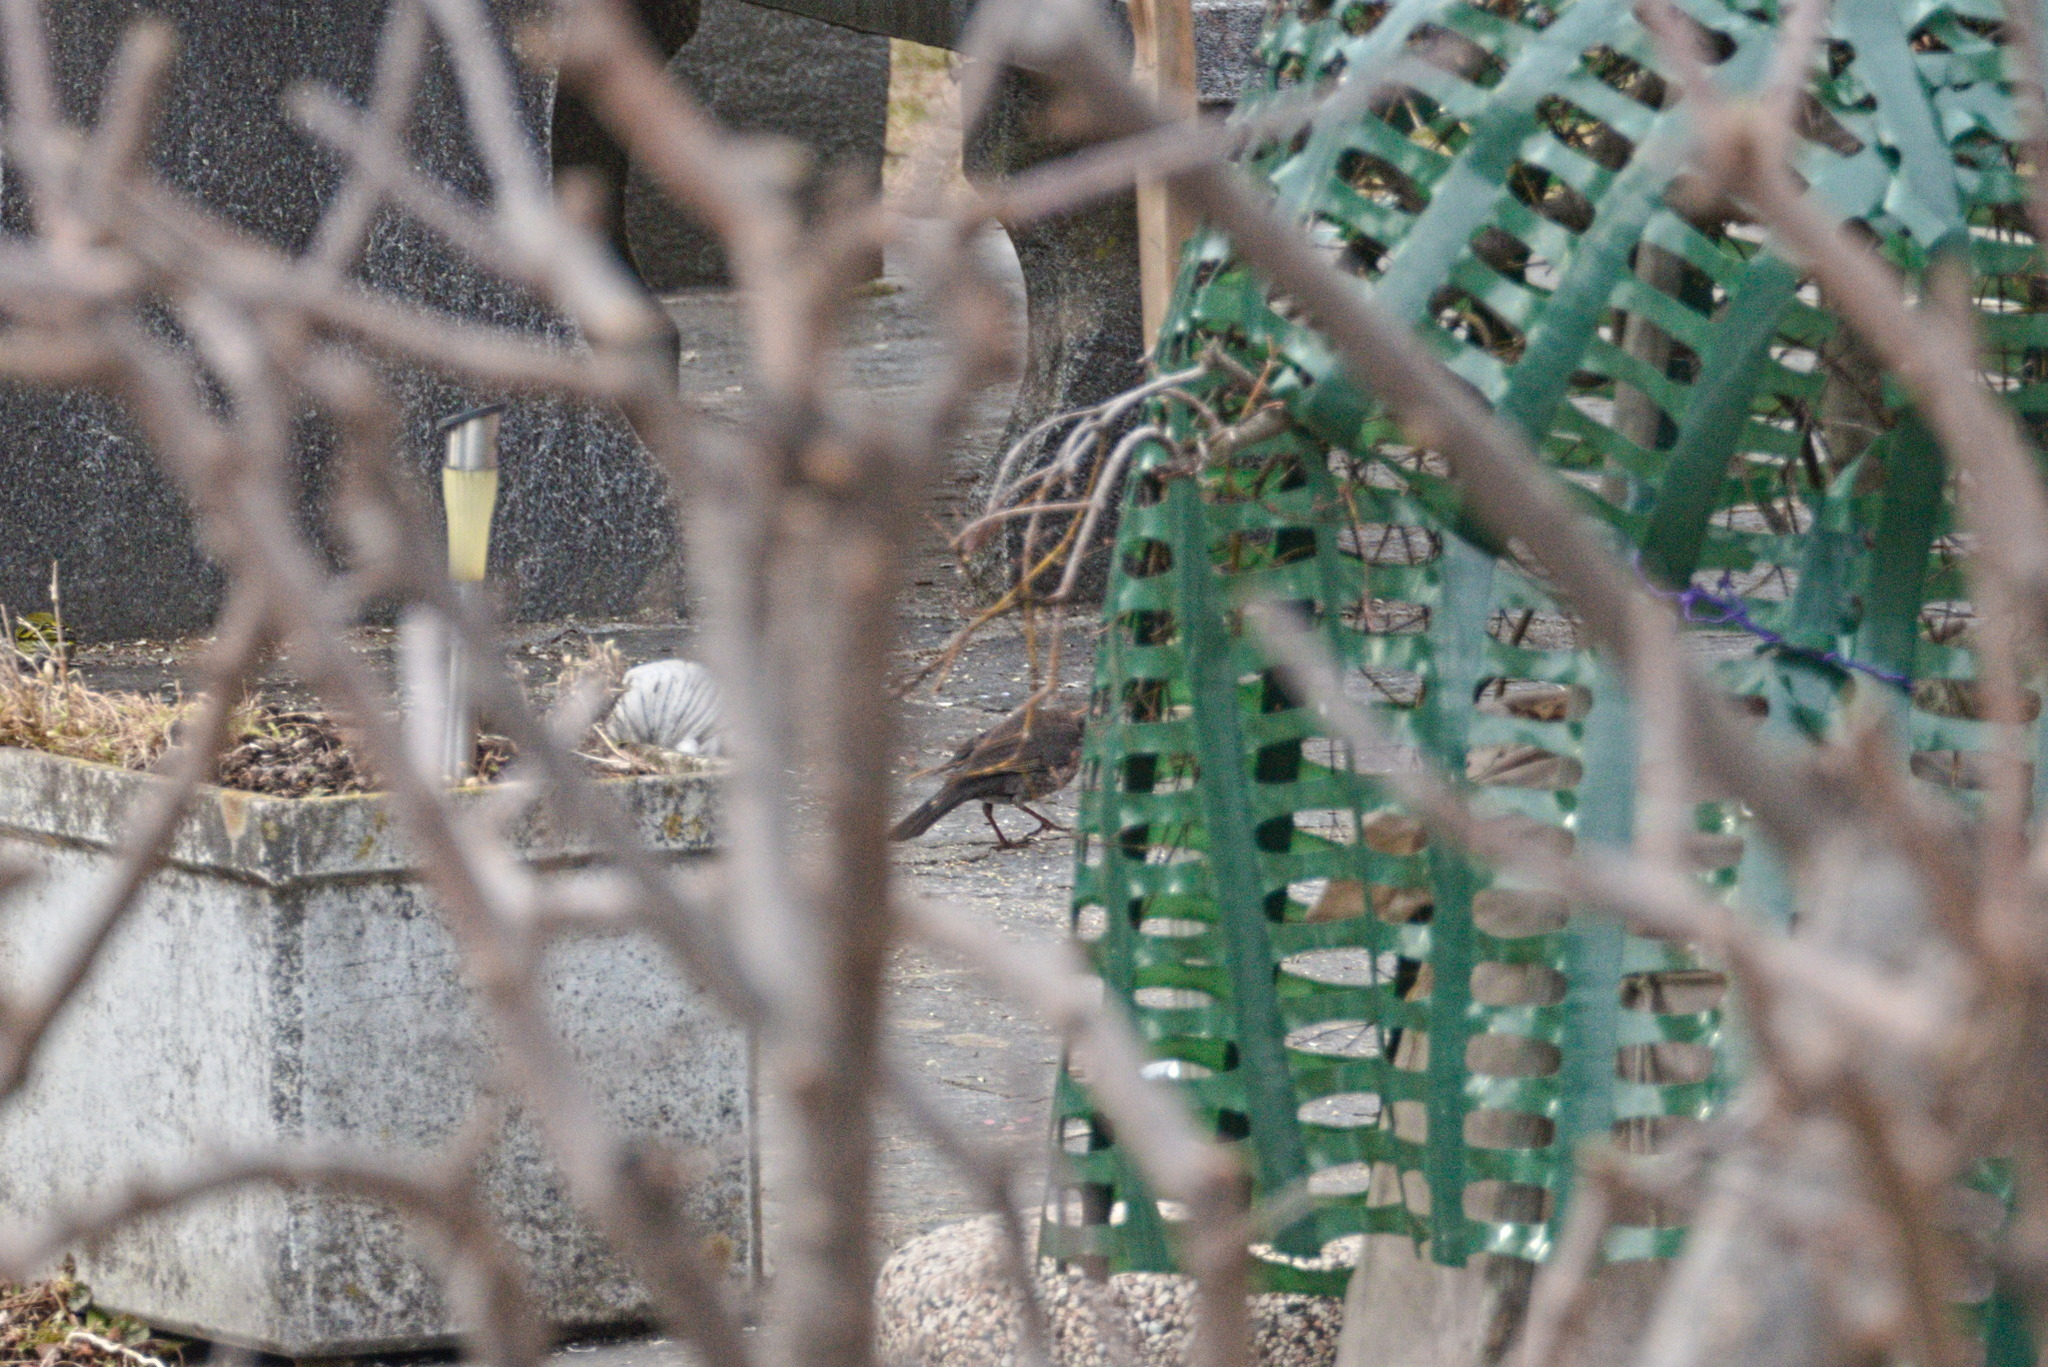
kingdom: Animalia
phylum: Chordata
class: Aves
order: Passeriformes
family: Turdidae
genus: Turdus
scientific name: Turdus pilaris
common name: Fieldfare
